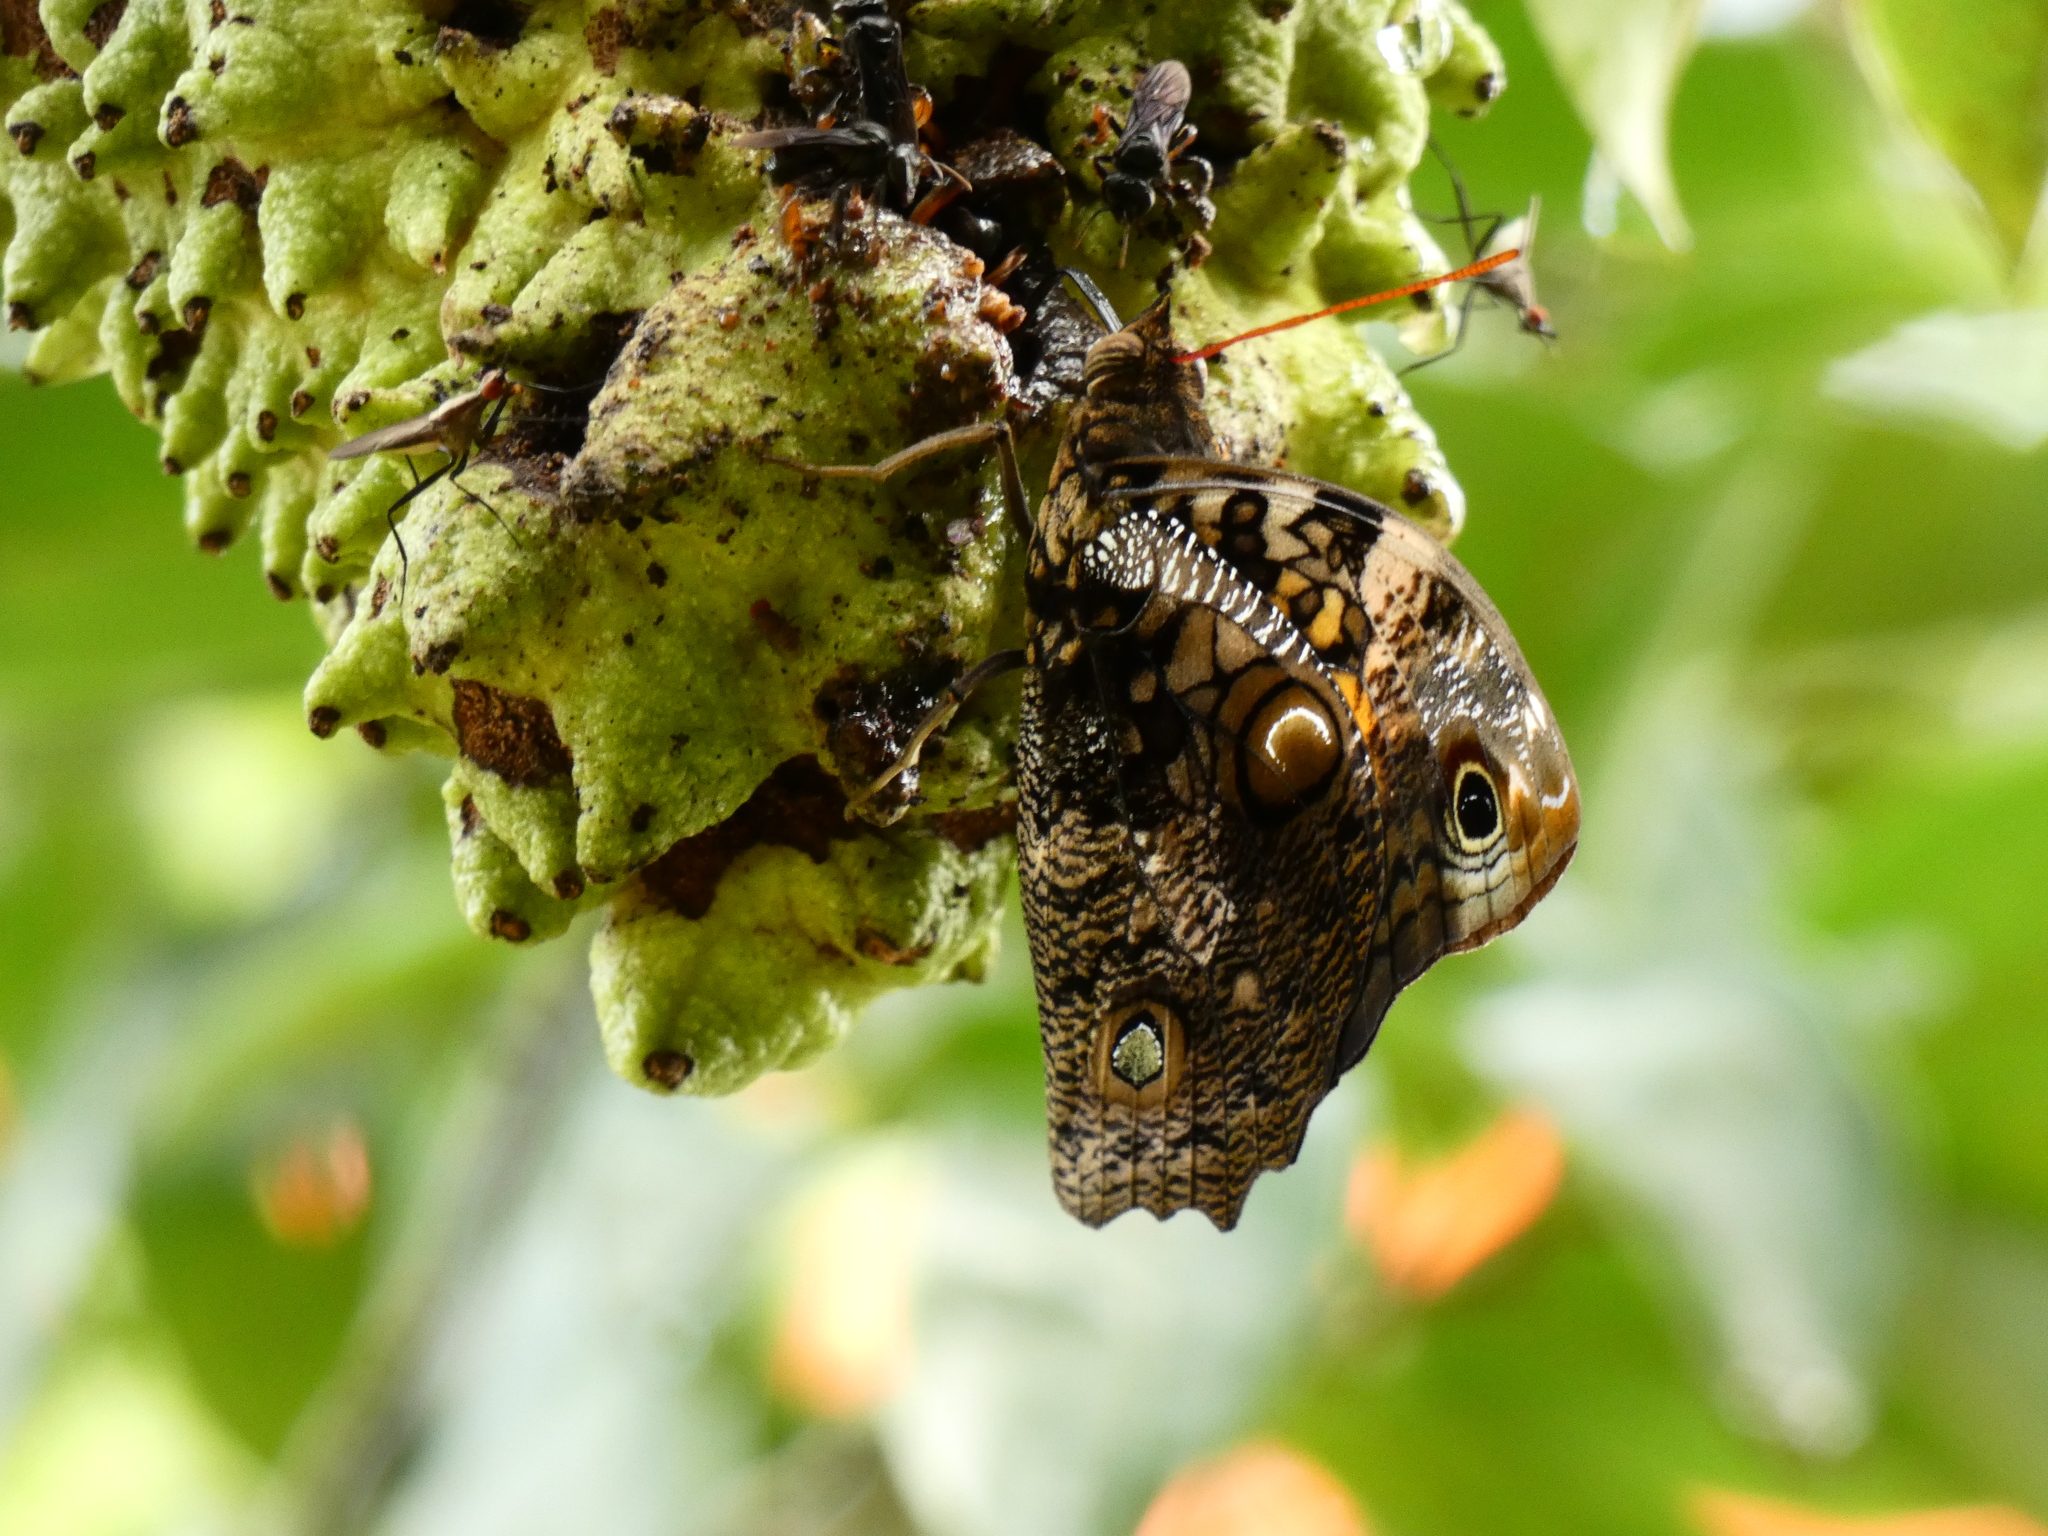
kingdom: Animalia
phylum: Arthropoda
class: Insecta
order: Lepidoptera
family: Nymphalidae
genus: Opsiphanes
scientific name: Opsiphanes quiteria
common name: Scalloped owlet
